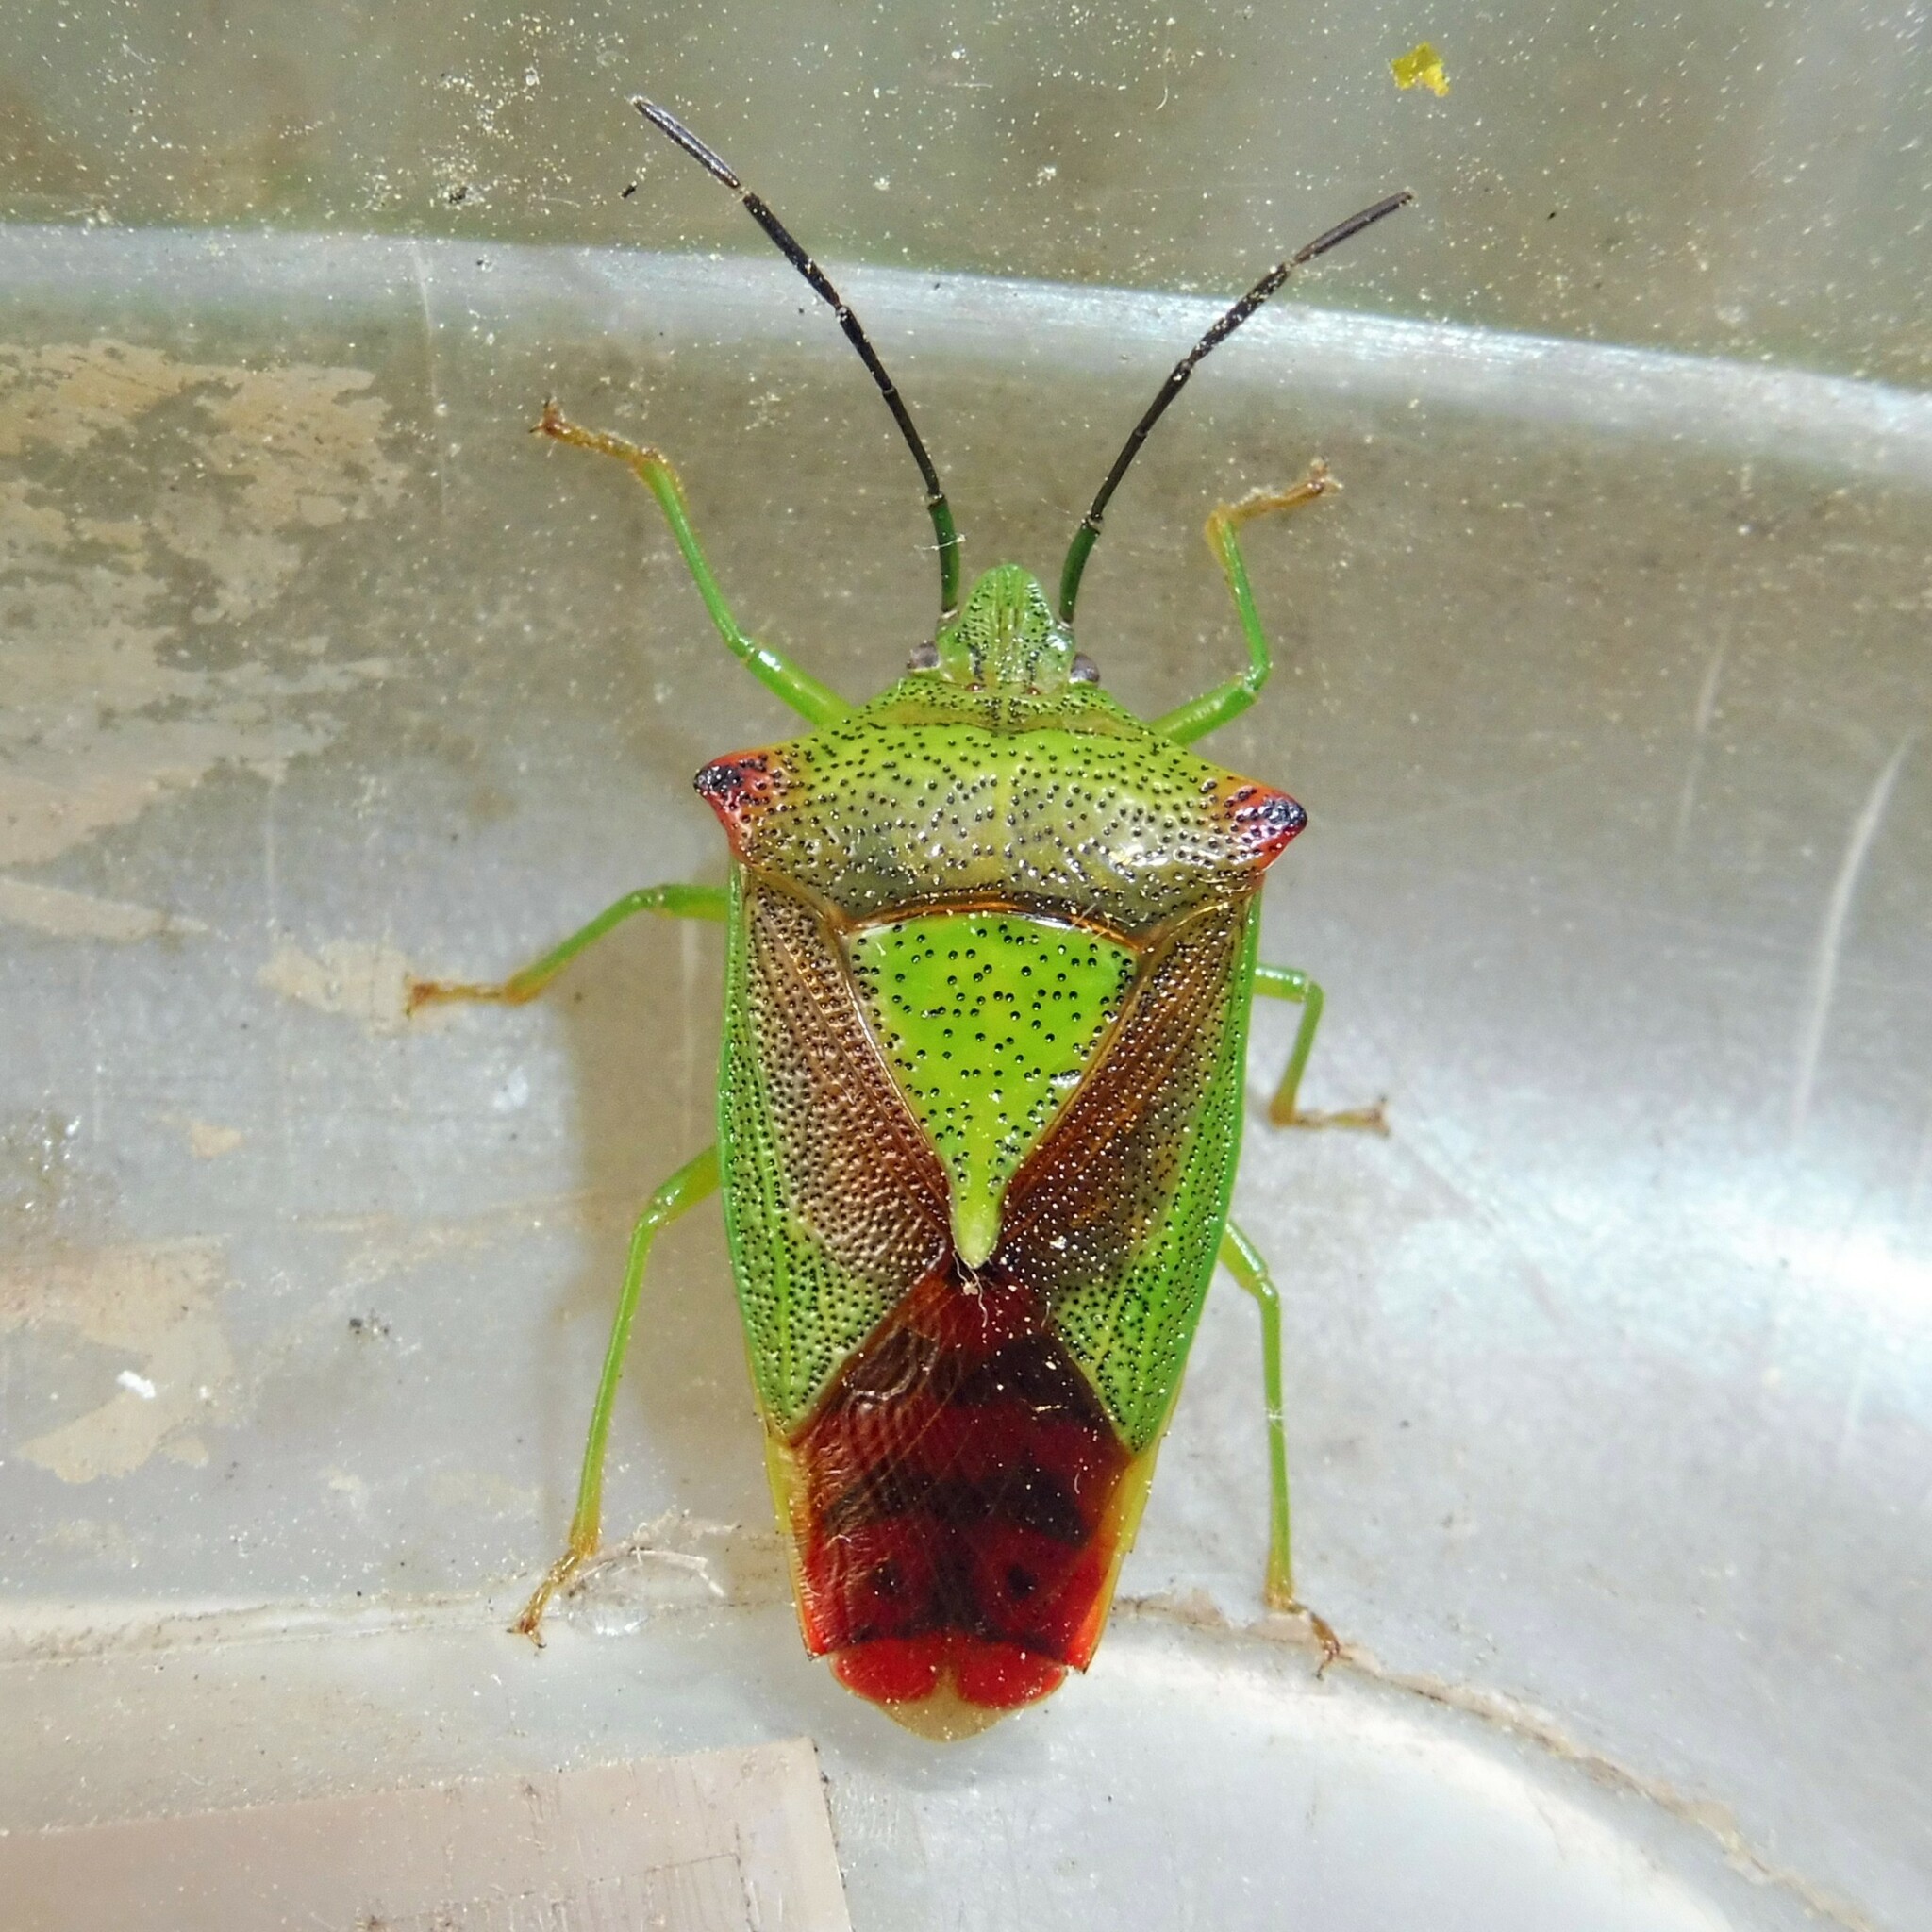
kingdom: Animalia
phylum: Arthropoda
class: Insecta
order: Hemiptera
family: Acanthosomatidae
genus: Acanthosoma
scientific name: Acanthosoma haemorrhoidale
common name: Hawthorn shieldbug
